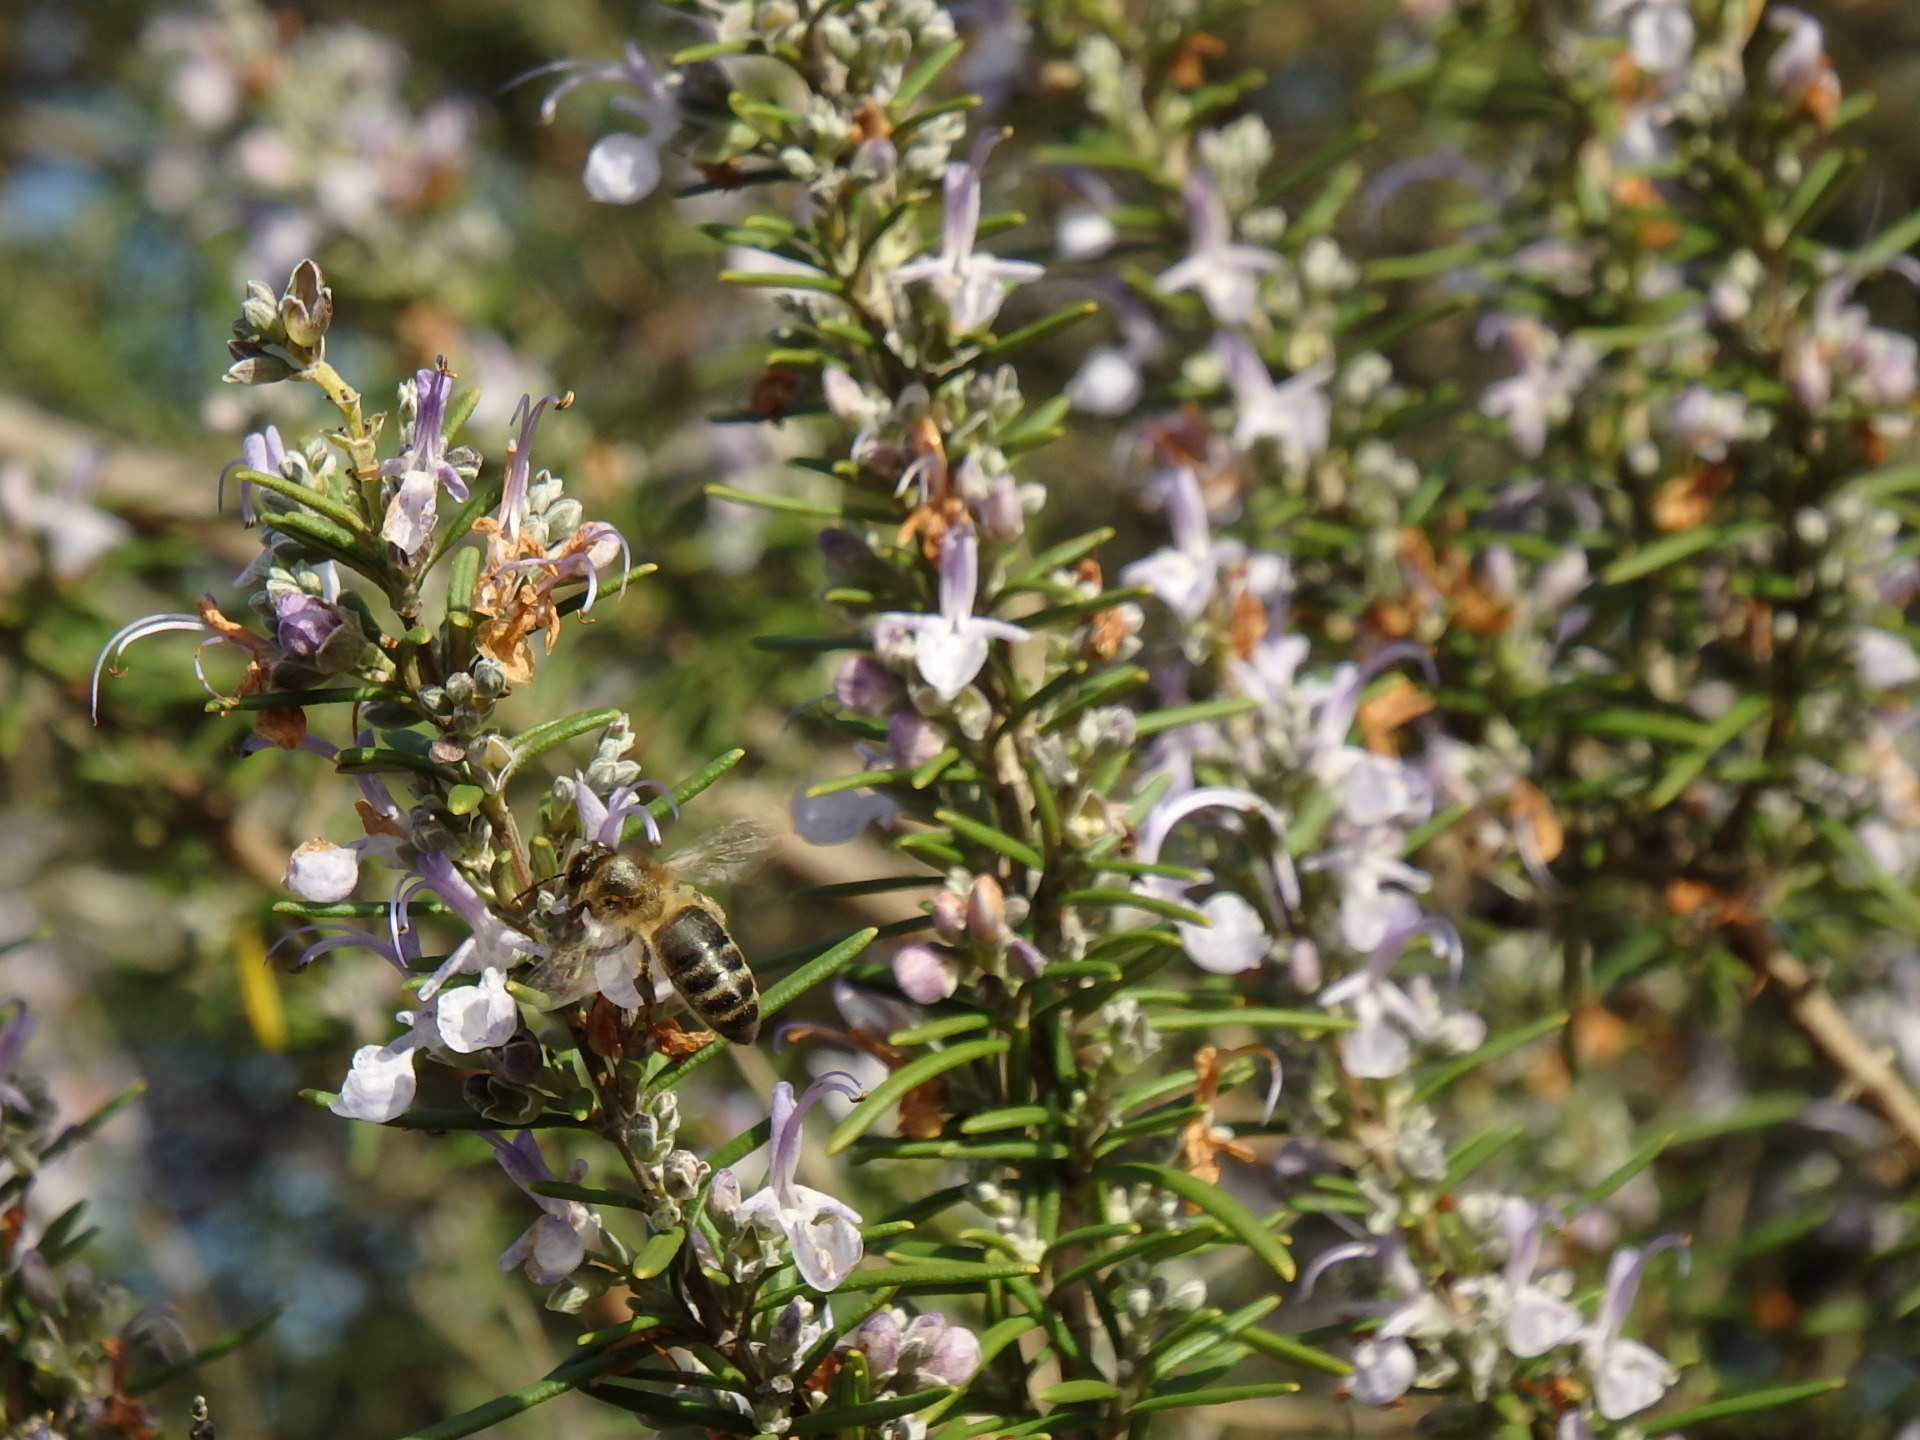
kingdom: Animalia
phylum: Arthropoda
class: Insecta
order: Hymenoptera
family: Apidae
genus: Apis
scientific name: Apis mellifera
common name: Honey bee
